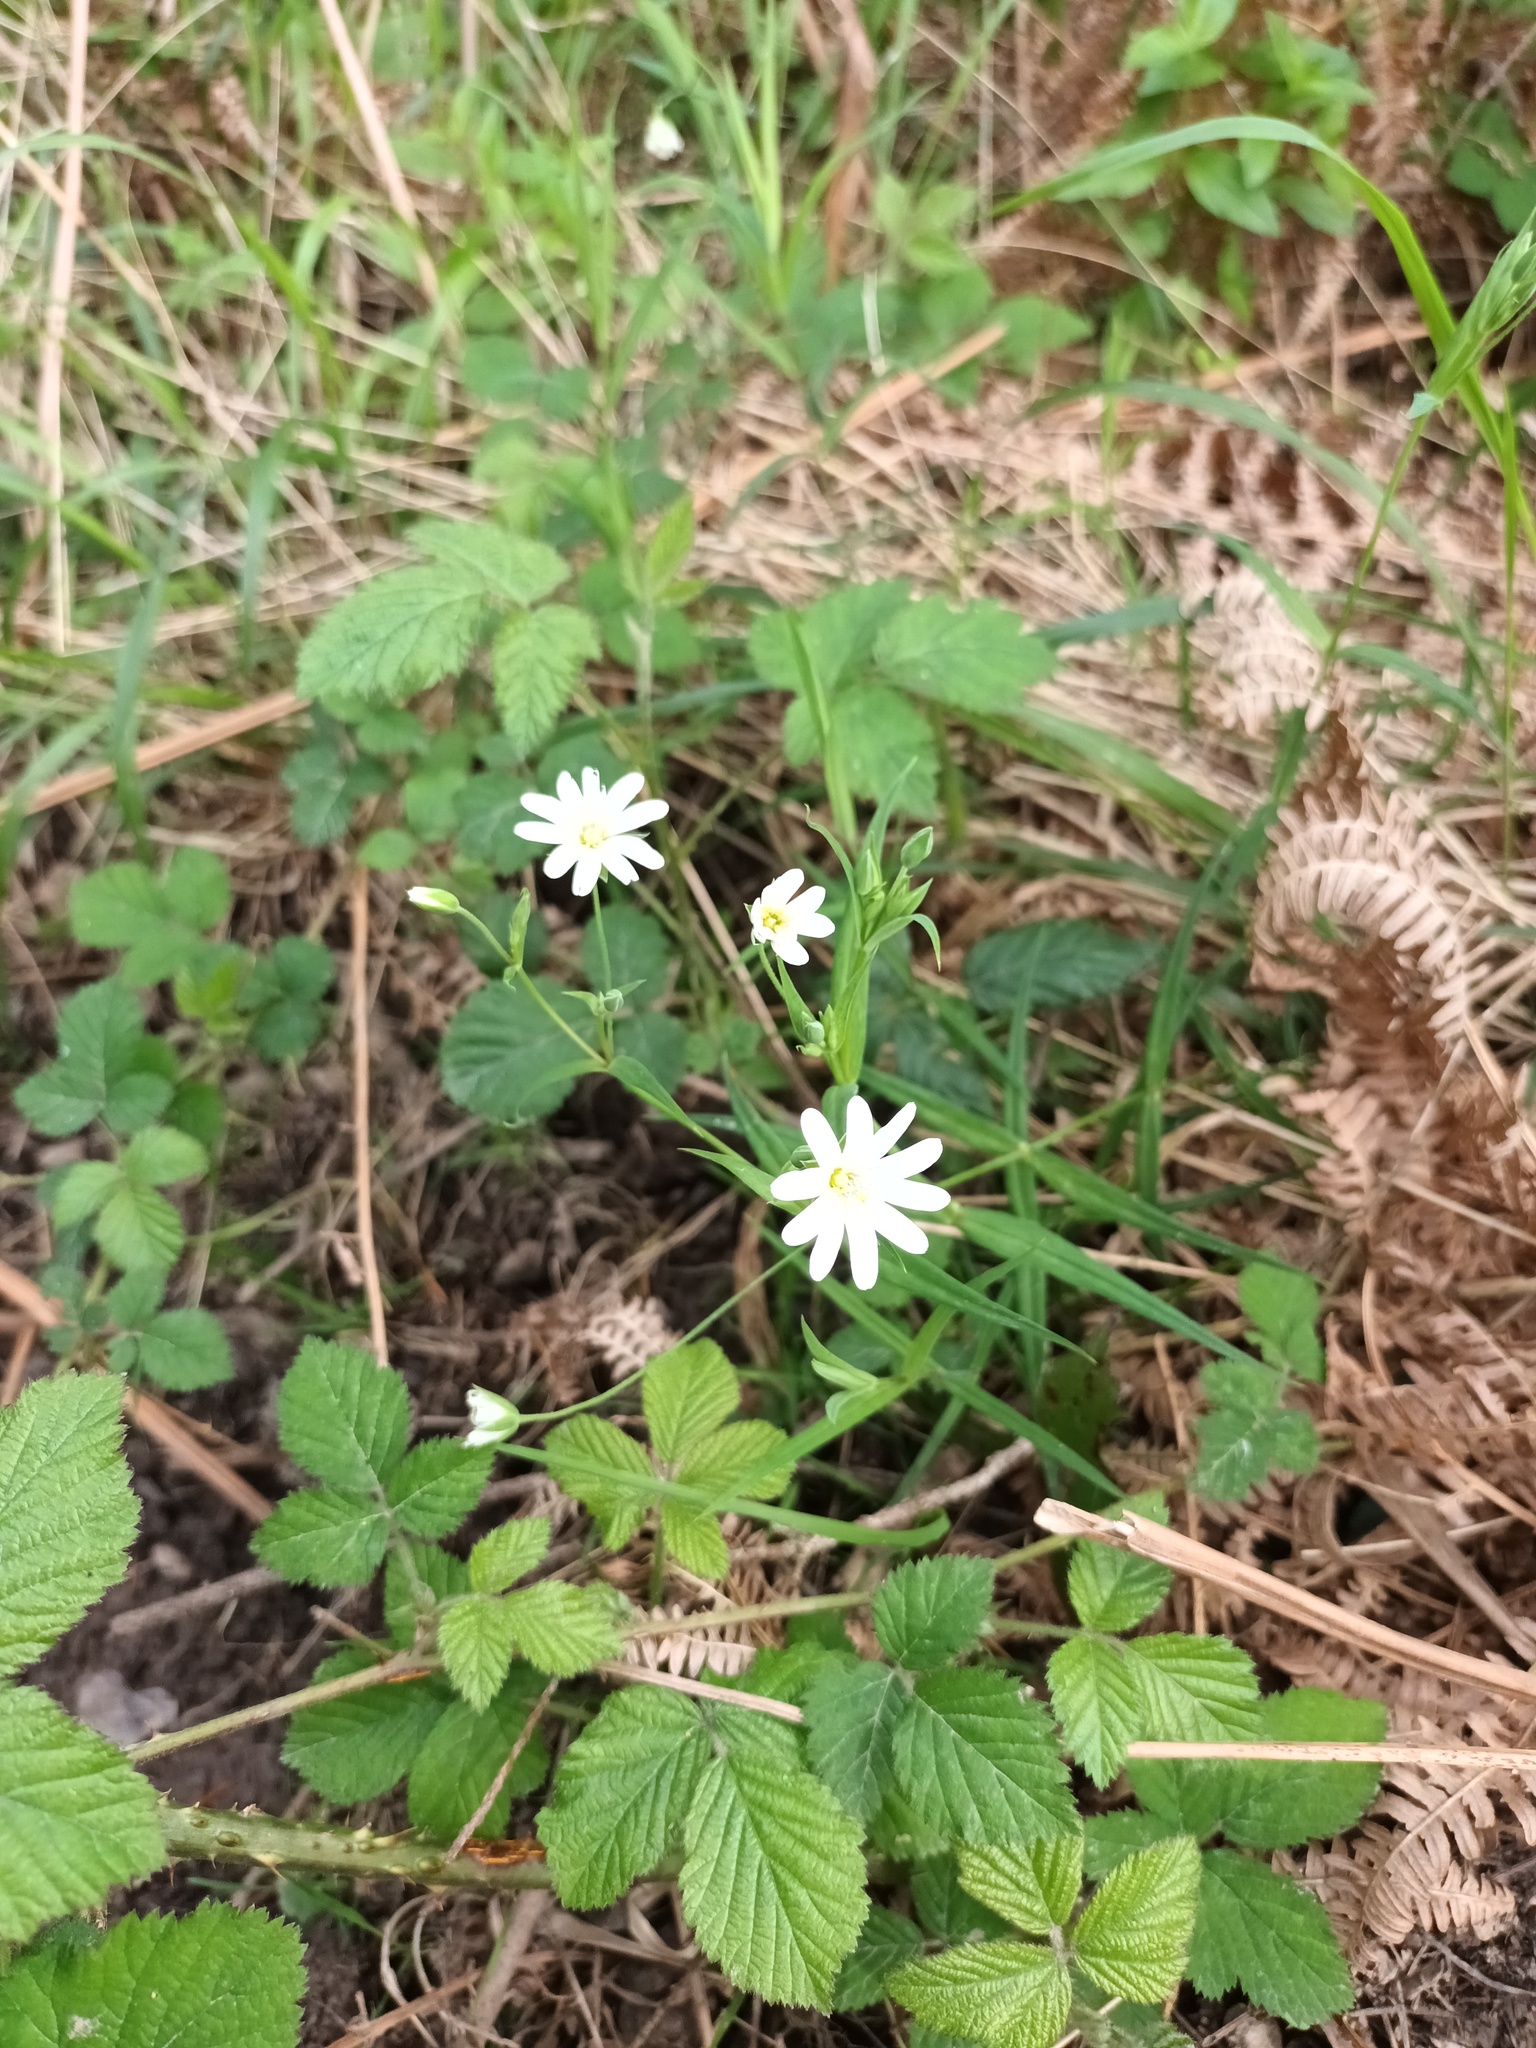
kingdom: Plantae
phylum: Tracheophyta
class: Magnoliopsida
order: Caryophyllales
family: Caryophyllaceae
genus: Rabelera
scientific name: Rabelera holostea
